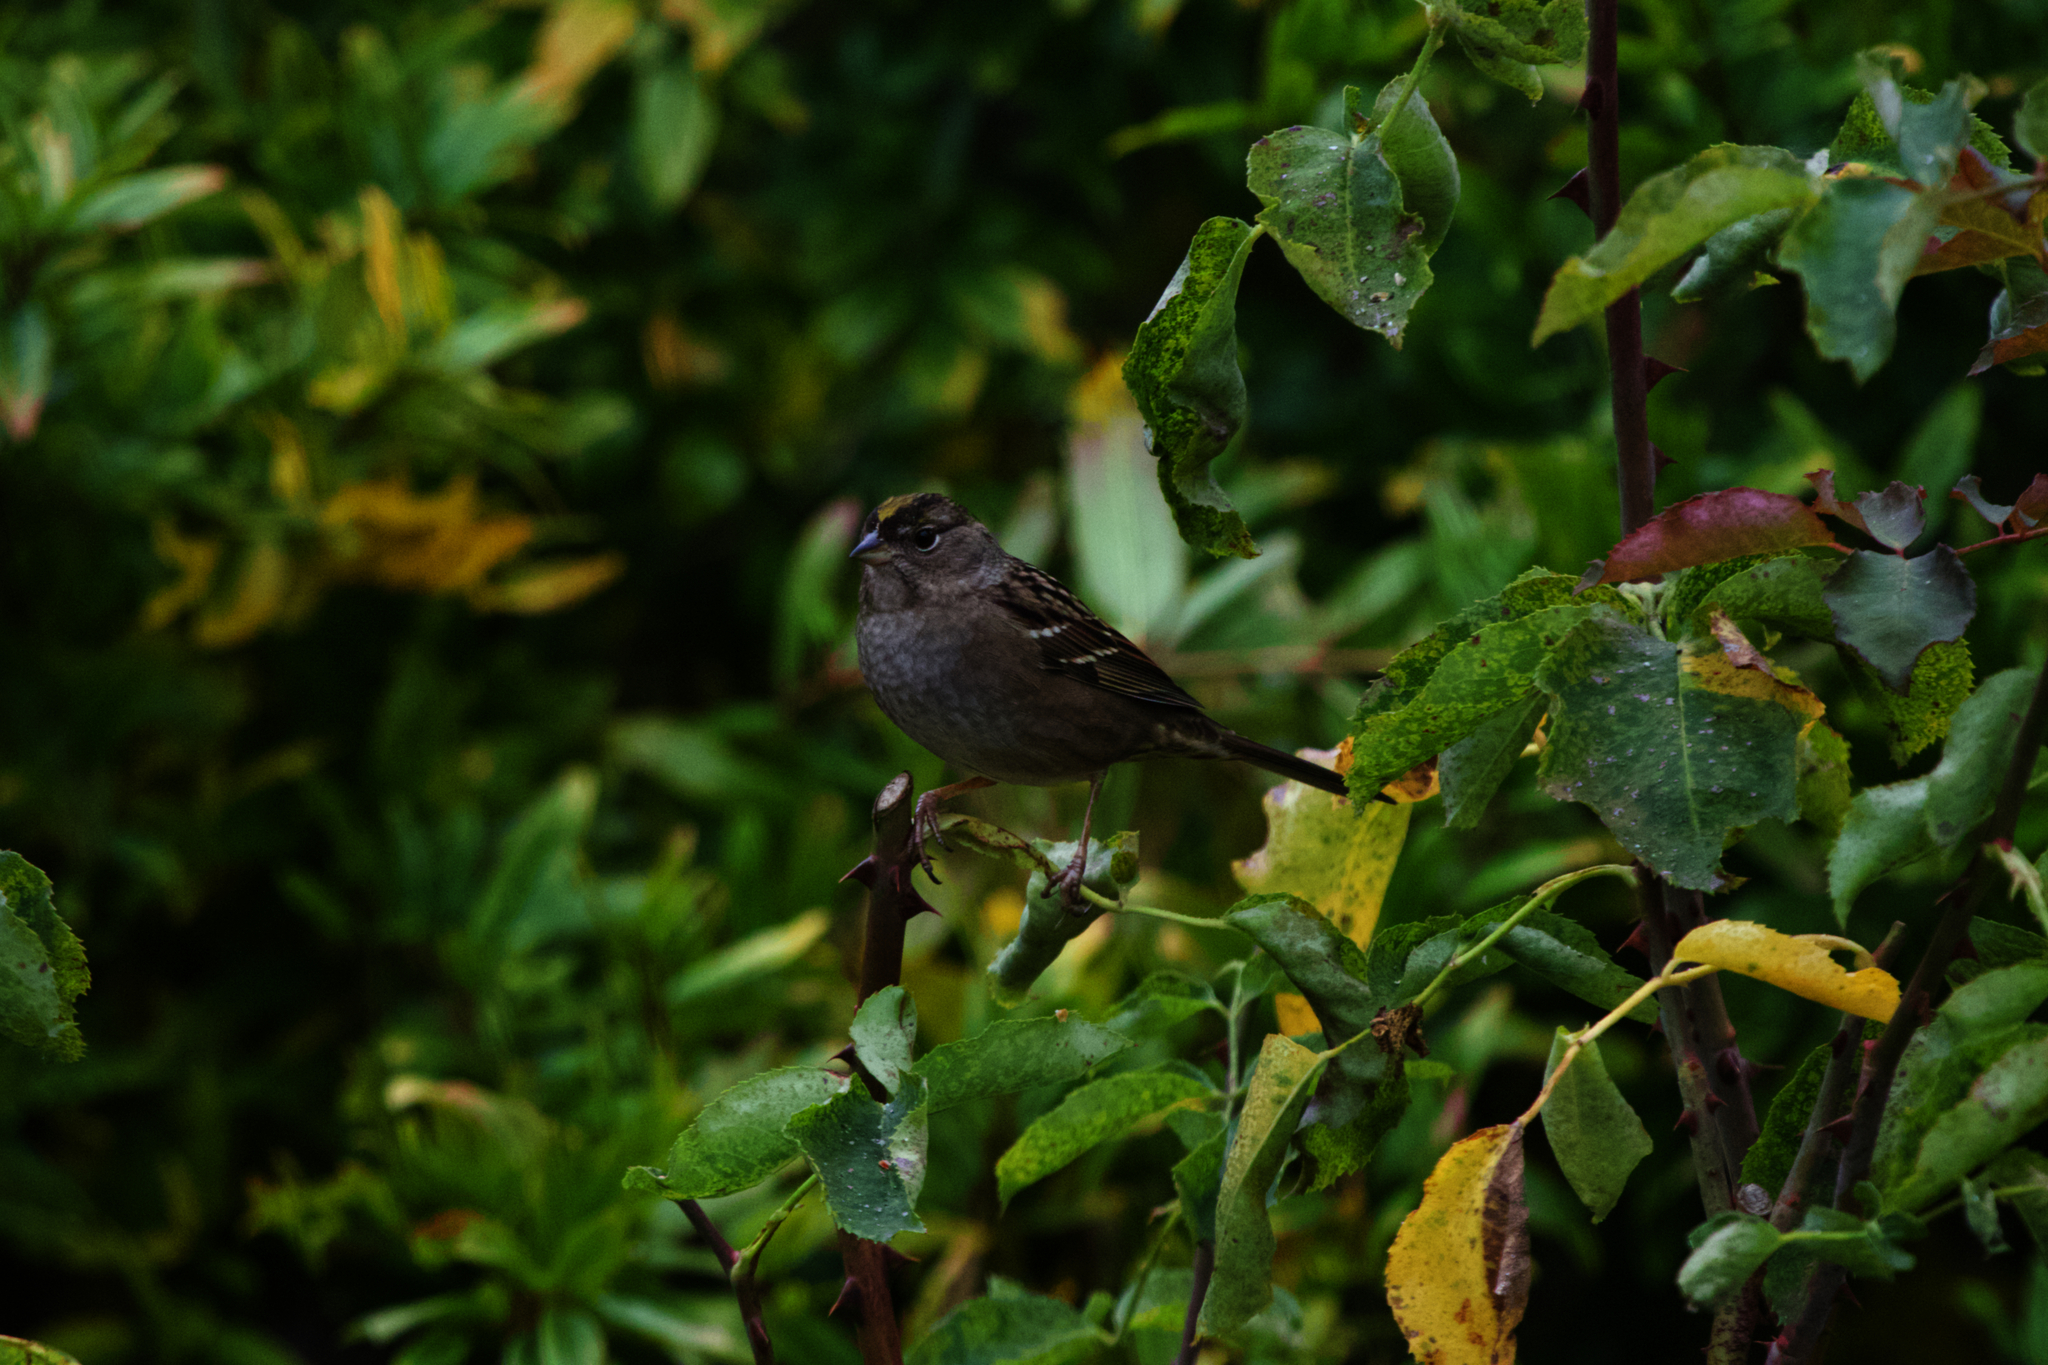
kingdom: Animalia
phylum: Chordata
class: Aves
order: Passeriformes
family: Passerellidae
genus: Zonotrichia
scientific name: Zonotrichia atricapilla
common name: Golden-crowned sparrow
